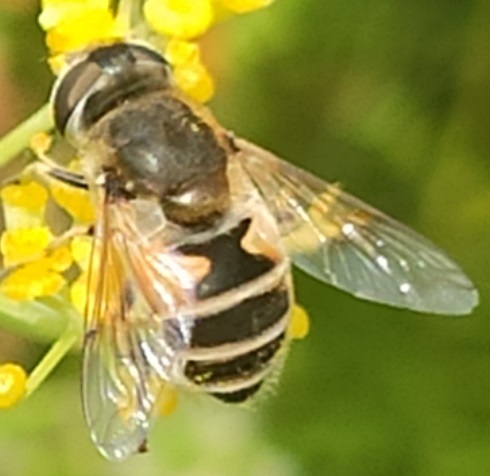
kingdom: Animalia
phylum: Arthropoda
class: Insecta
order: Diptera
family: Syrphidae
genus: Eristalis
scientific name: Eristalis arbustorum
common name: Hover fly
